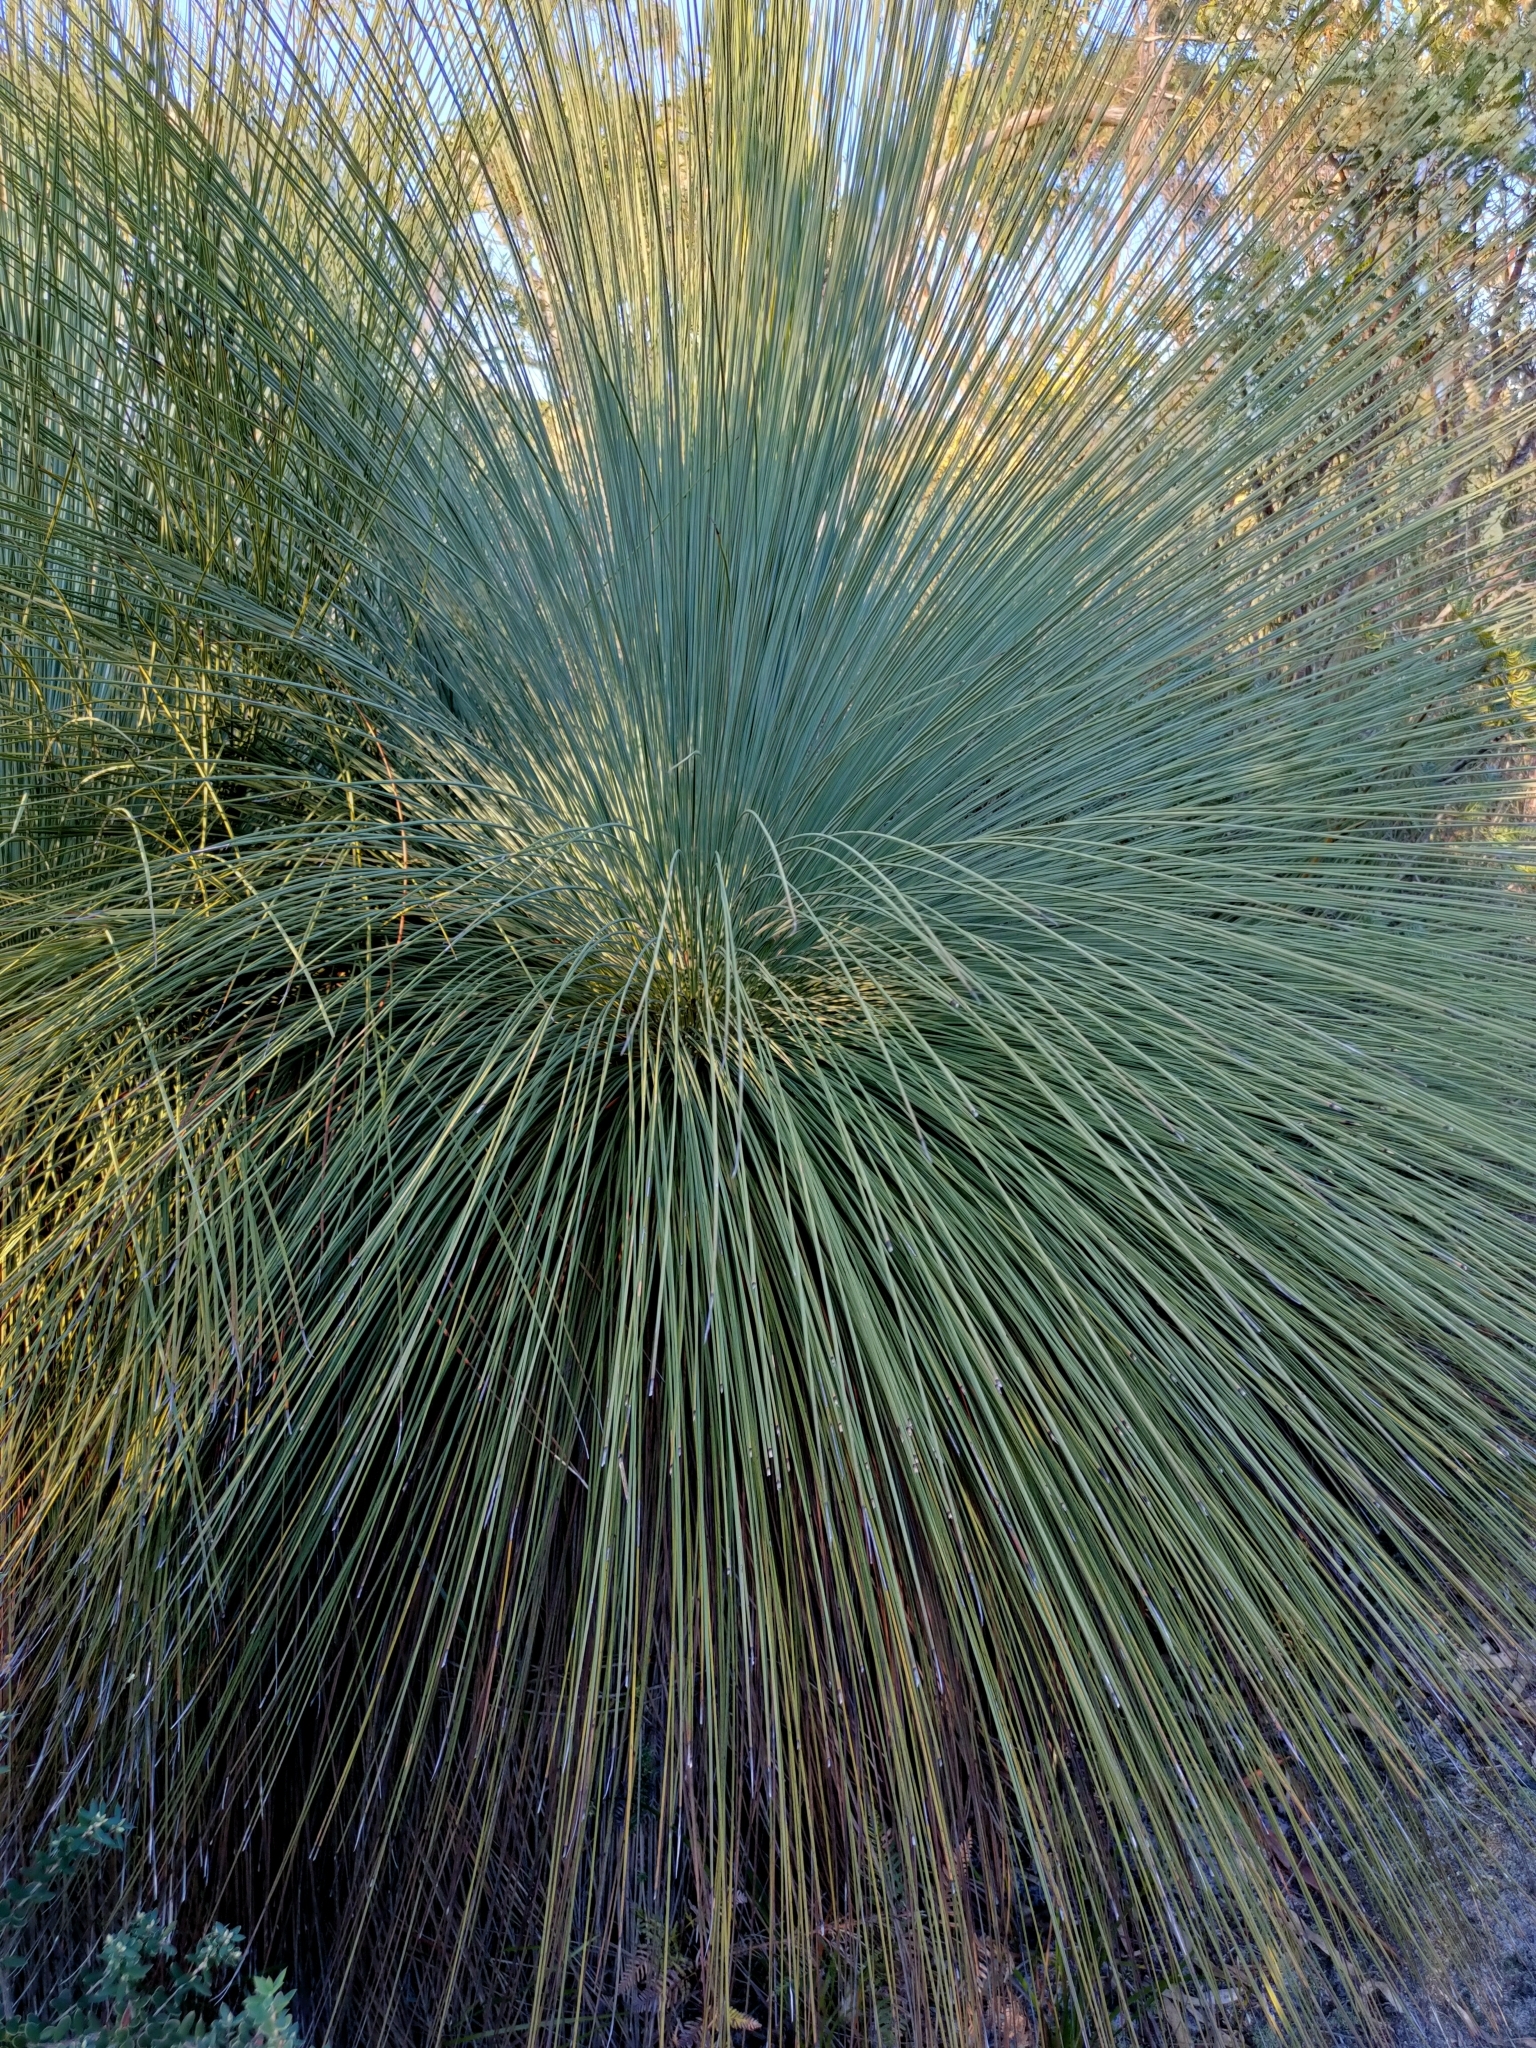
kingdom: Plantae
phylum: Tracheophyta
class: Liliopsida
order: Asparagales
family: Asphodelaceae
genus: Xanthorrhoea
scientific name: Xanthorrhoea australis
